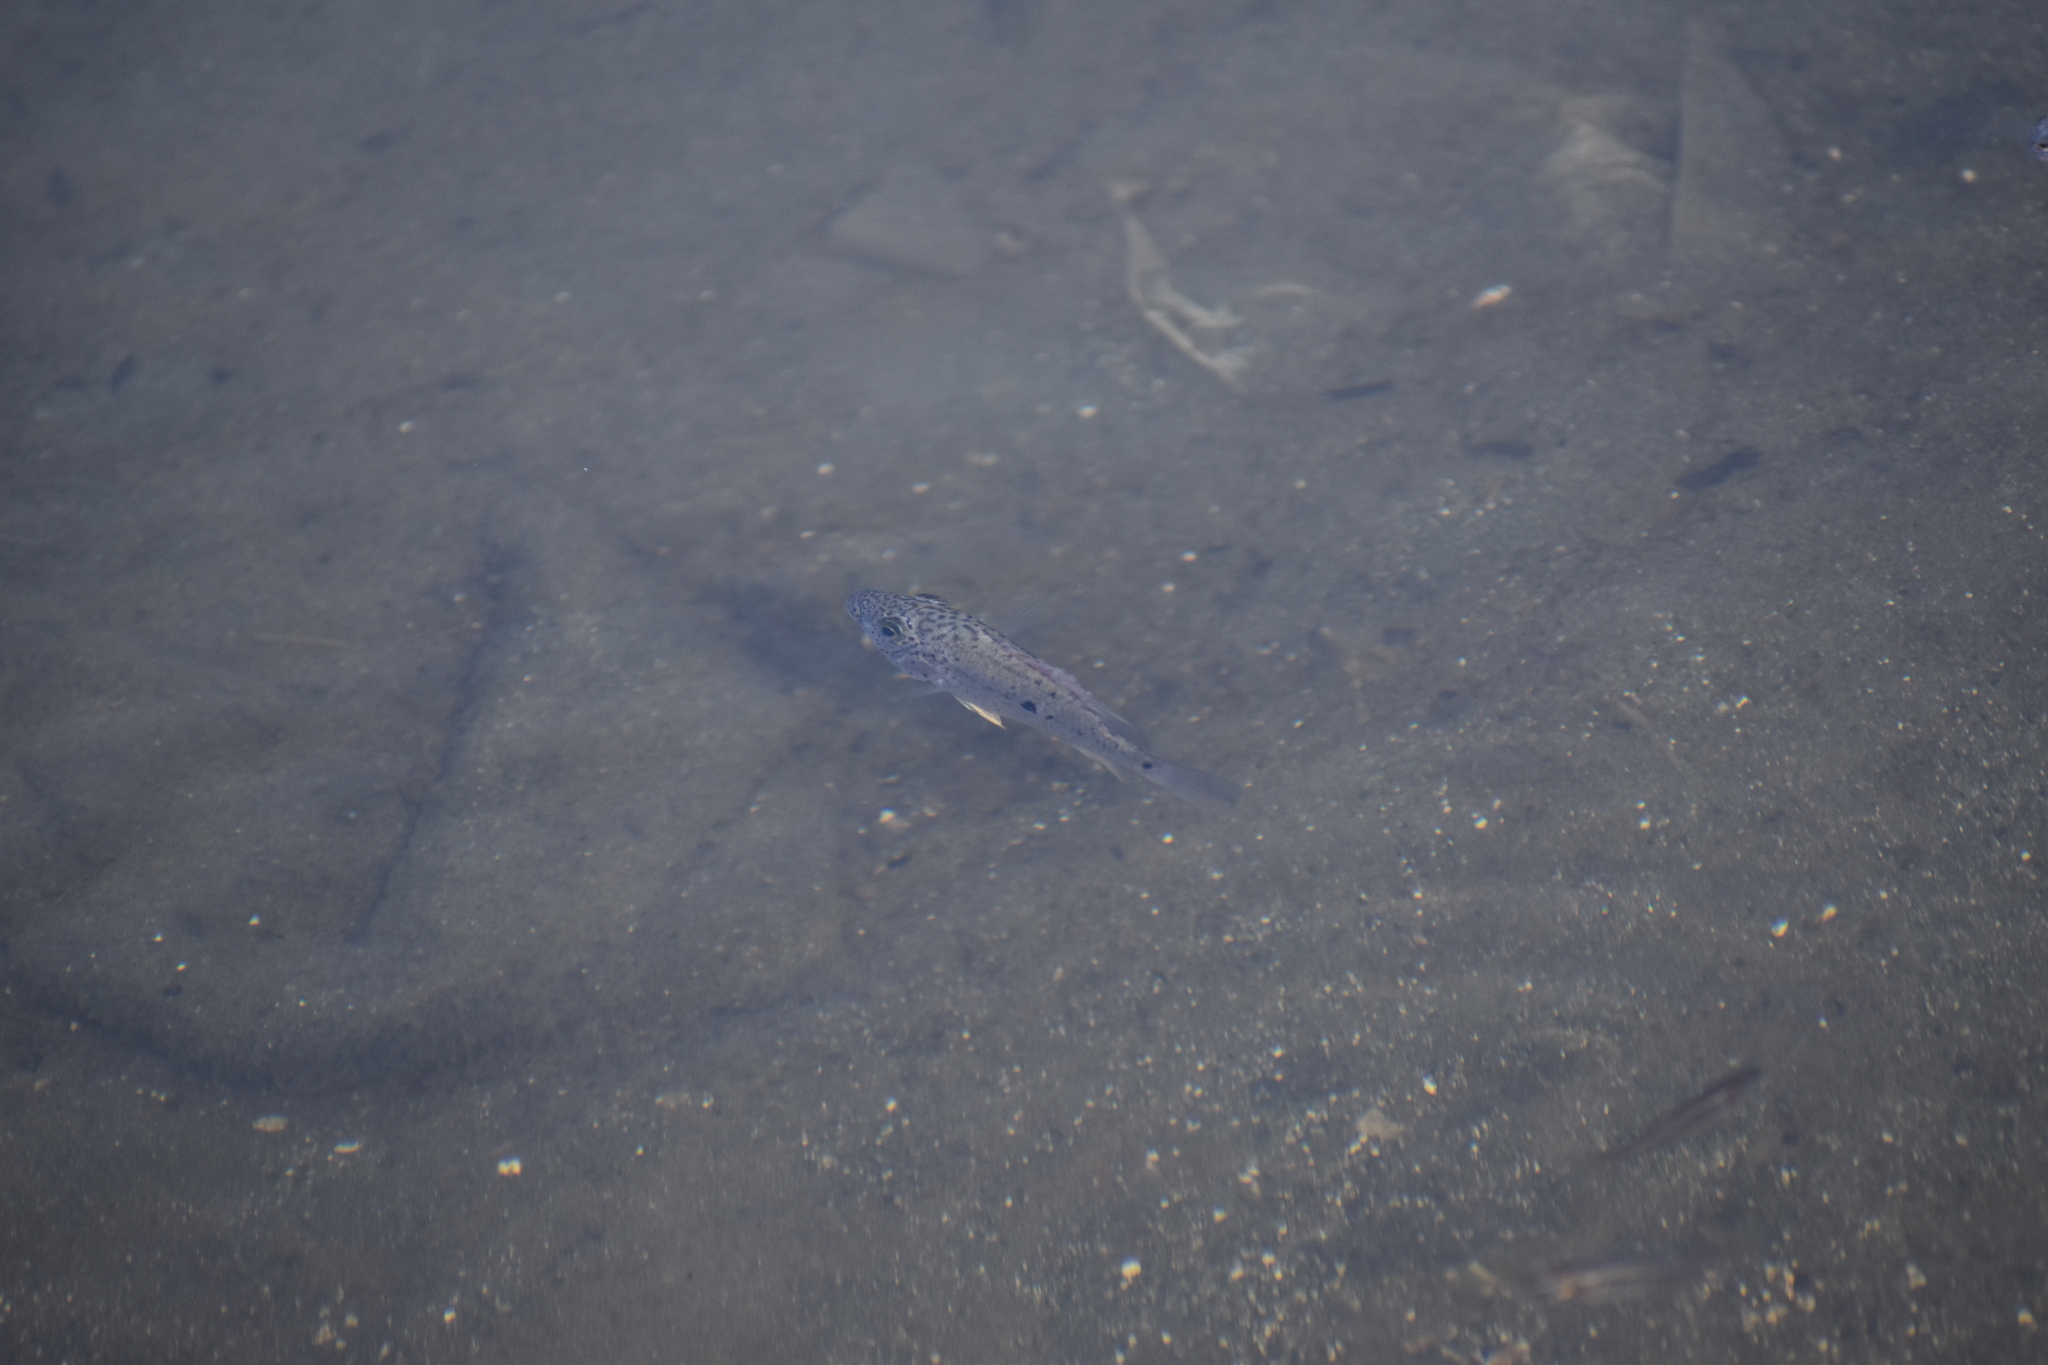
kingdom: Animalia
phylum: Chordata
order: Perciformes
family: Cichlidae
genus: Nandopsis
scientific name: Nandopsis haitiensis
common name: Haitian cichlid
